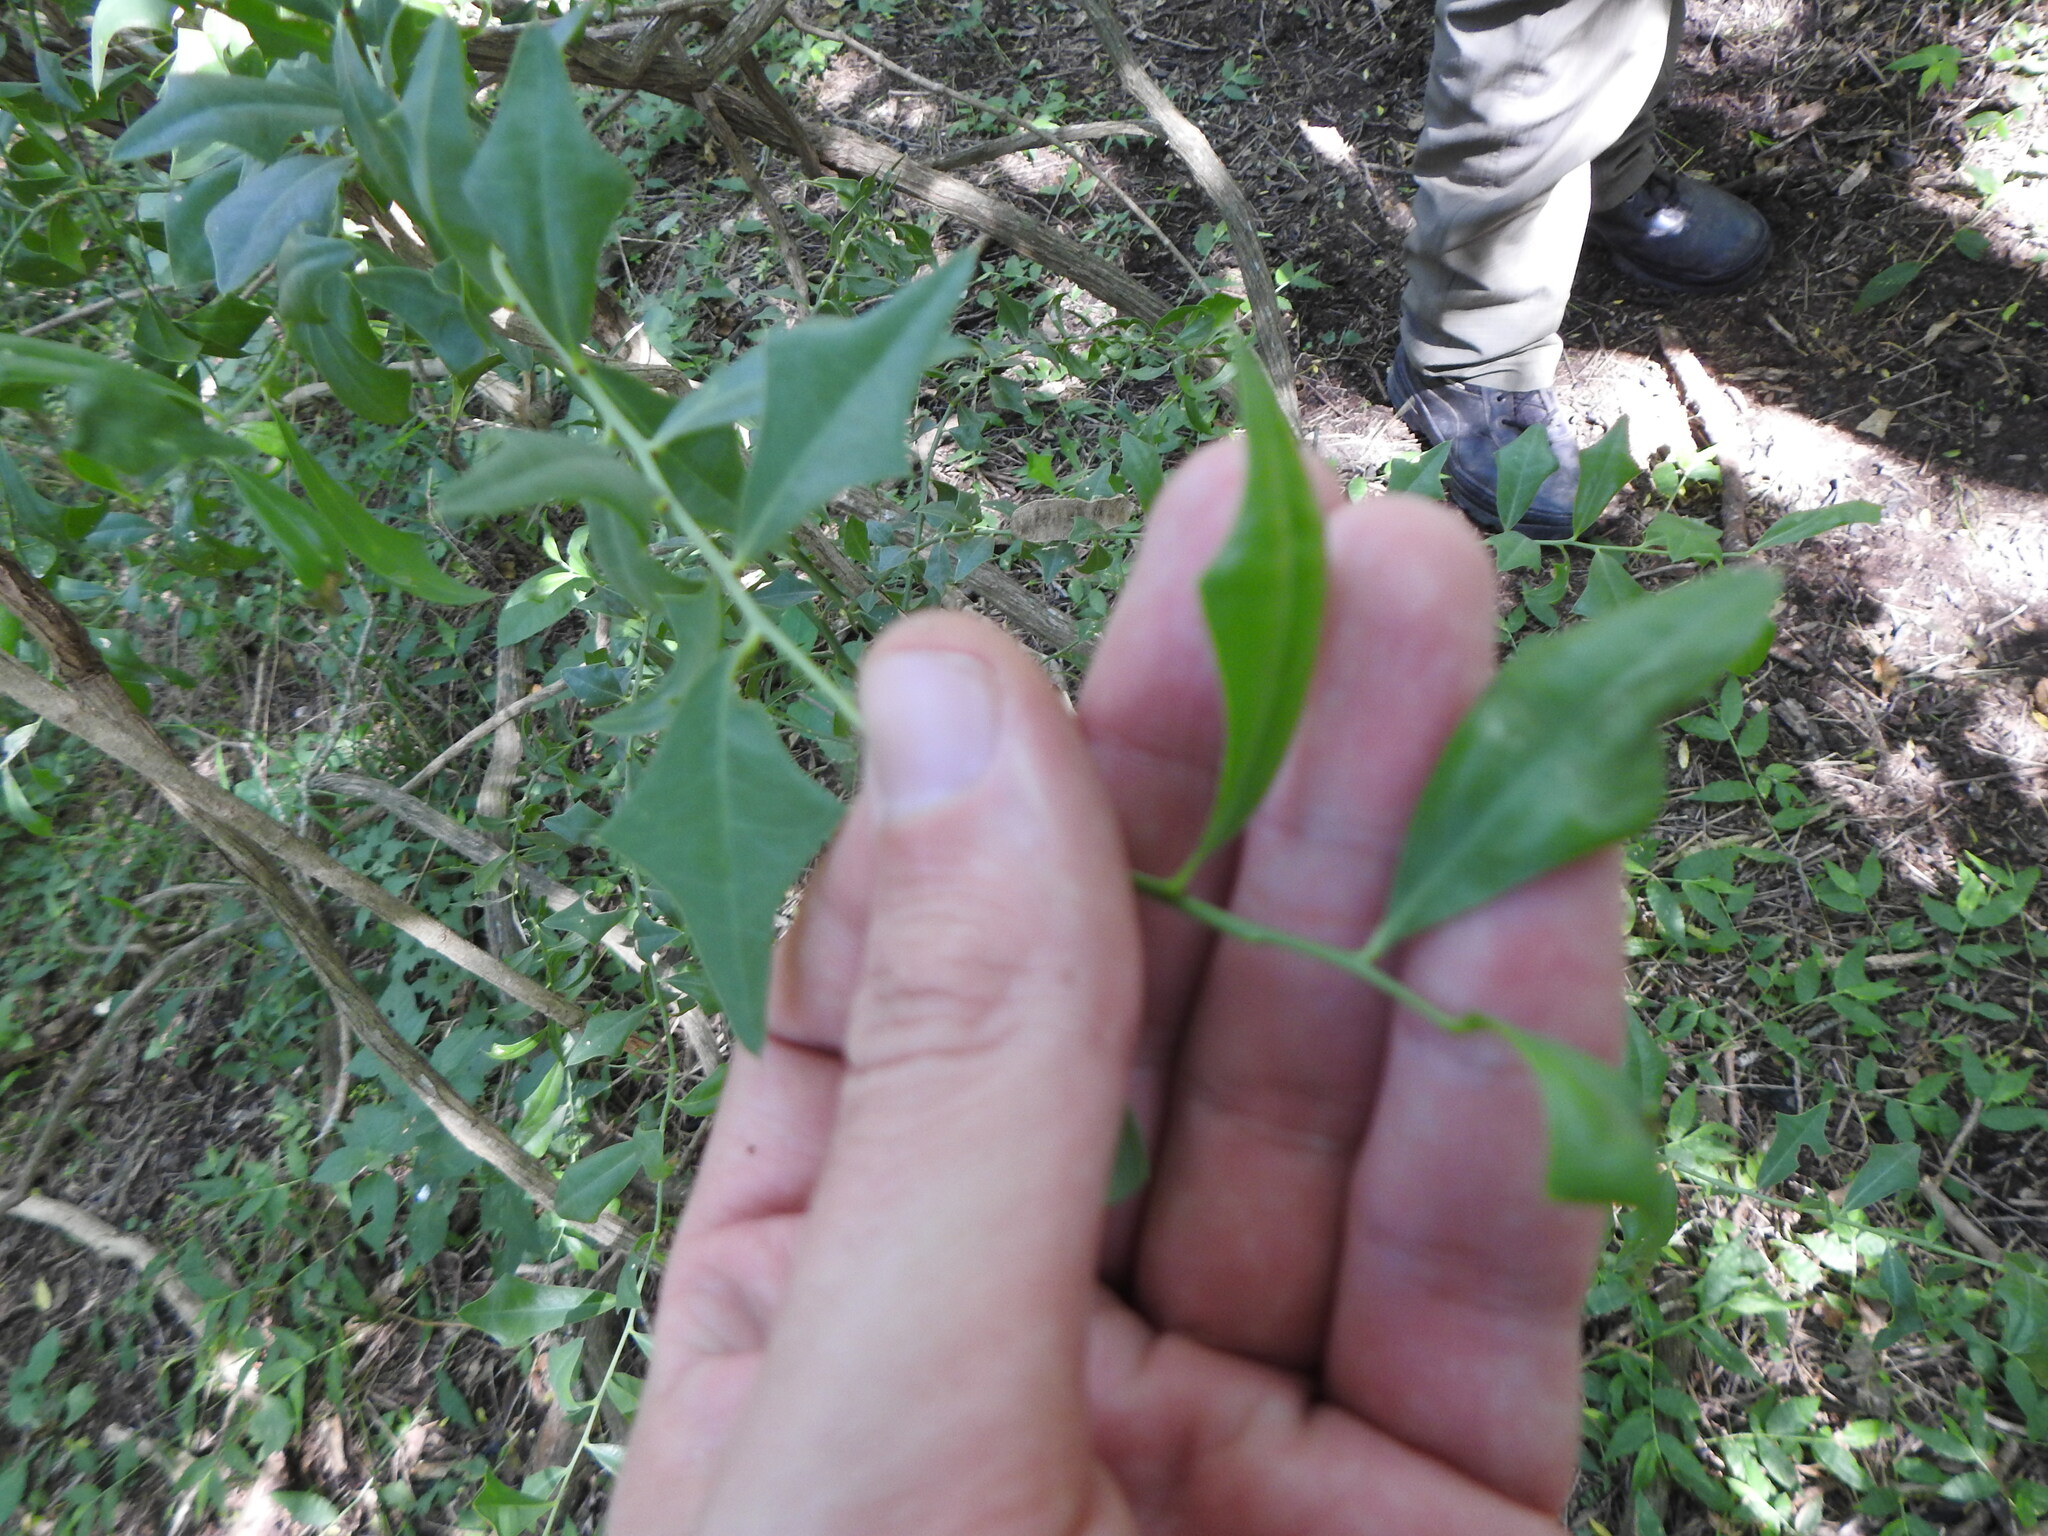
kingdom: Plantae
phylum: Tracheophyta
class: Magnoliopsida
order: Santalales
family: Cervantesiaceae
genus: Jodina
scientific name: Jodina rhombifolia
